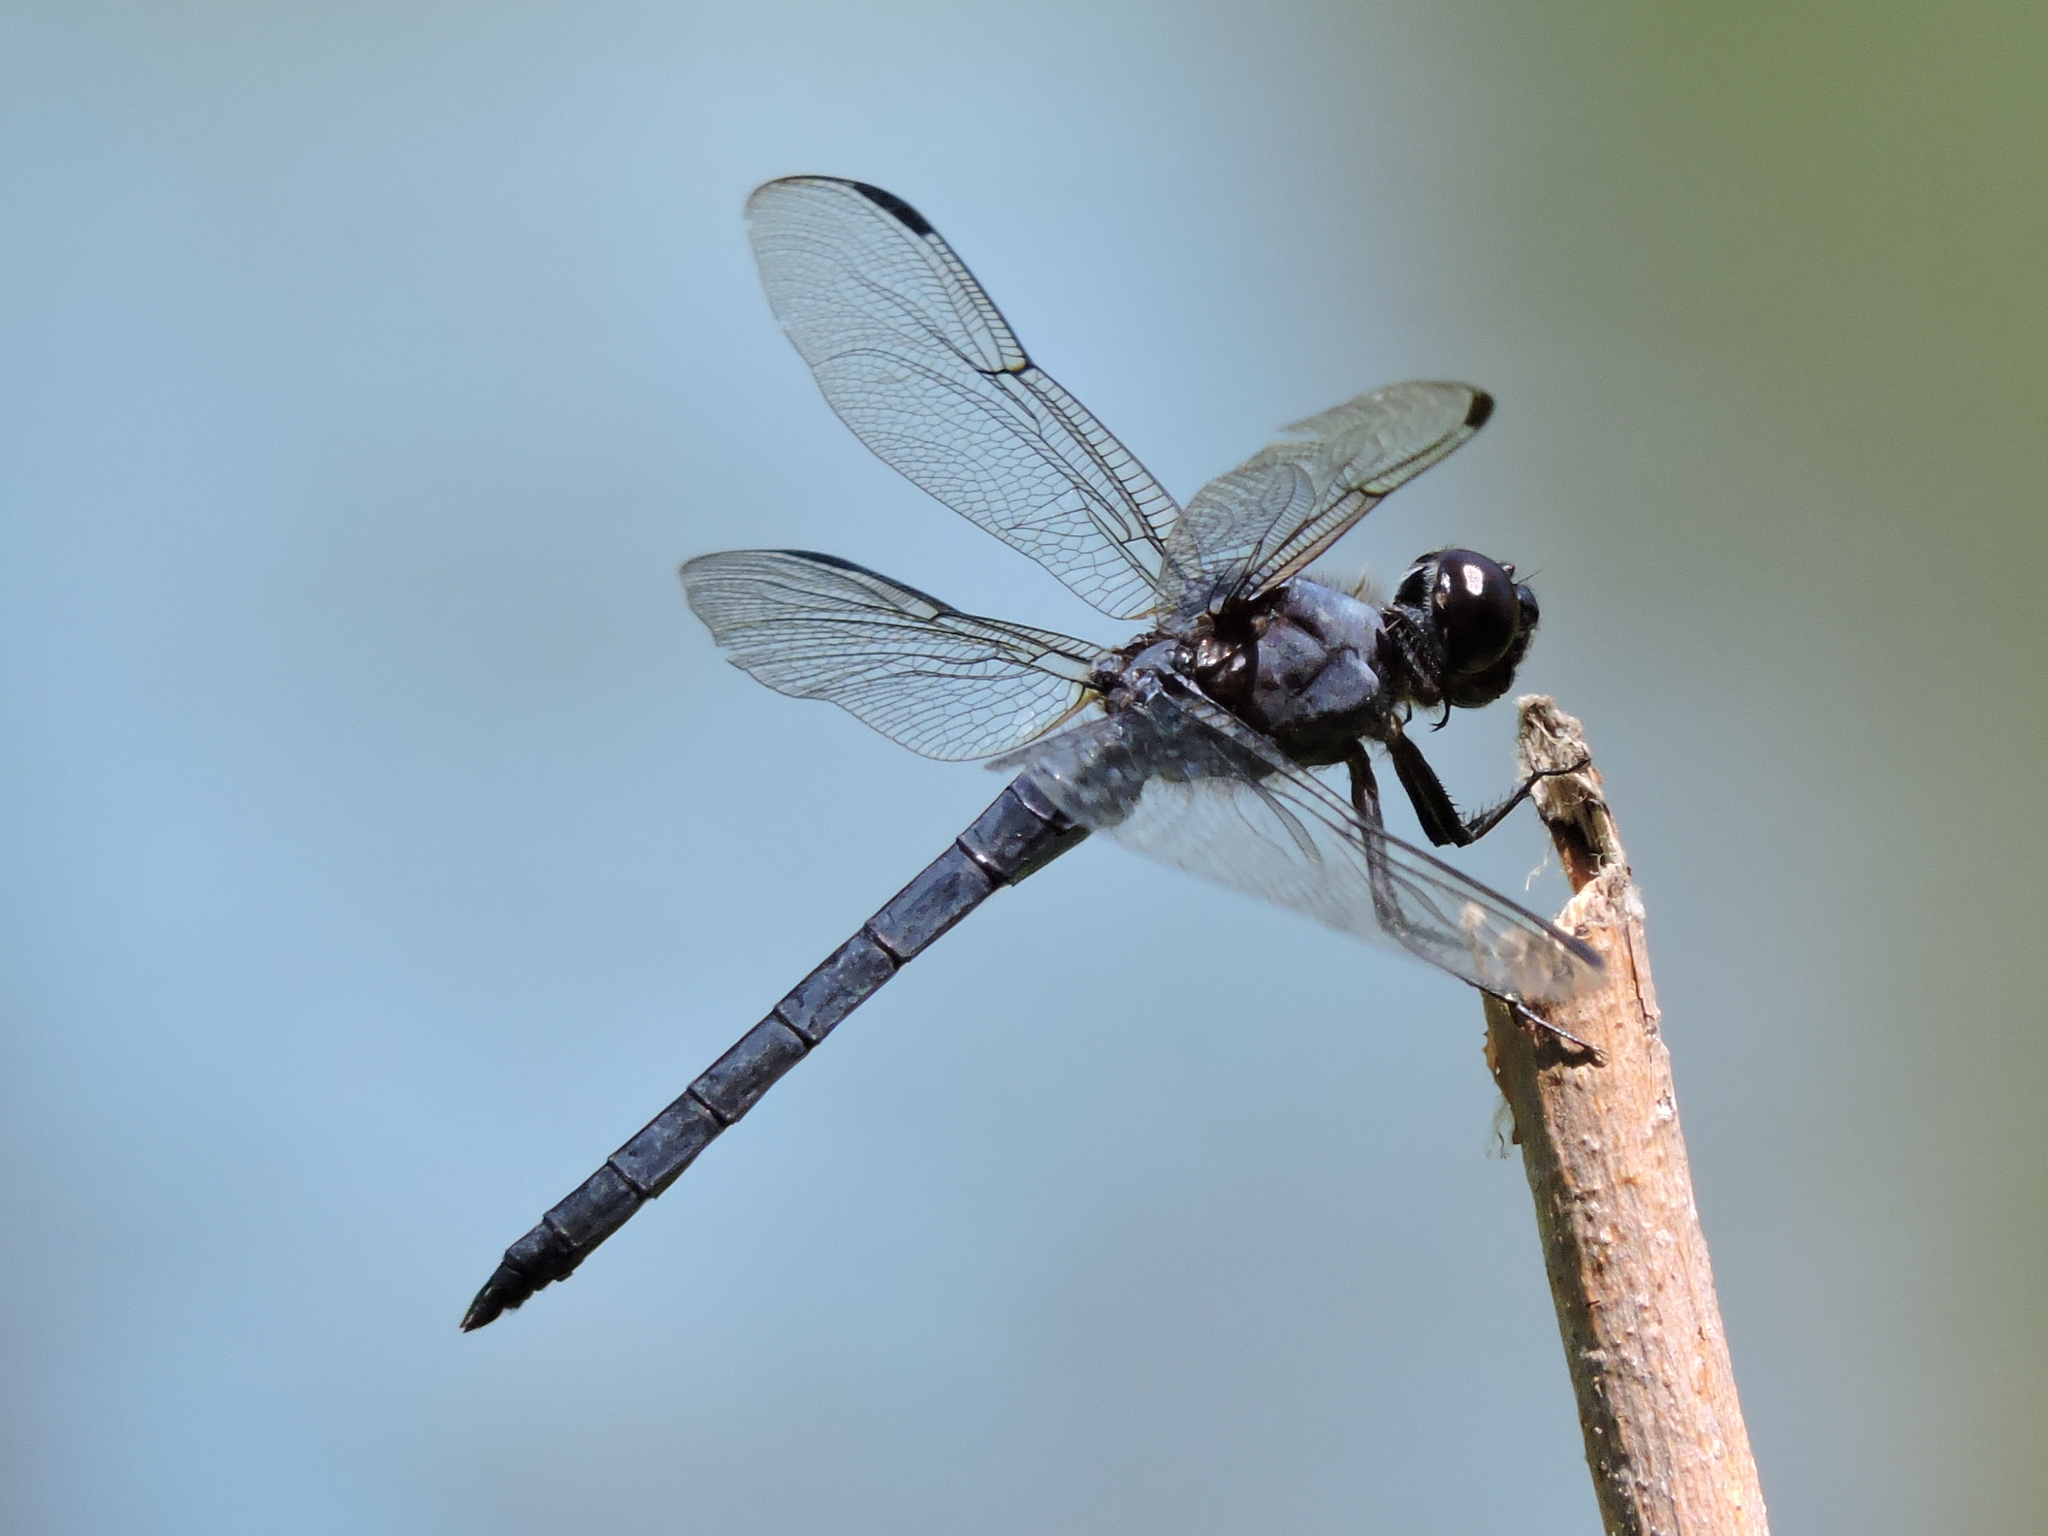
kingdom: Animalia
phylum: Arthropoda
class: Insecta
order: Odonata
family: Libellulidae
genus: Libellula
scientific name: Libellula incesta
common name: Slaty skimmer
